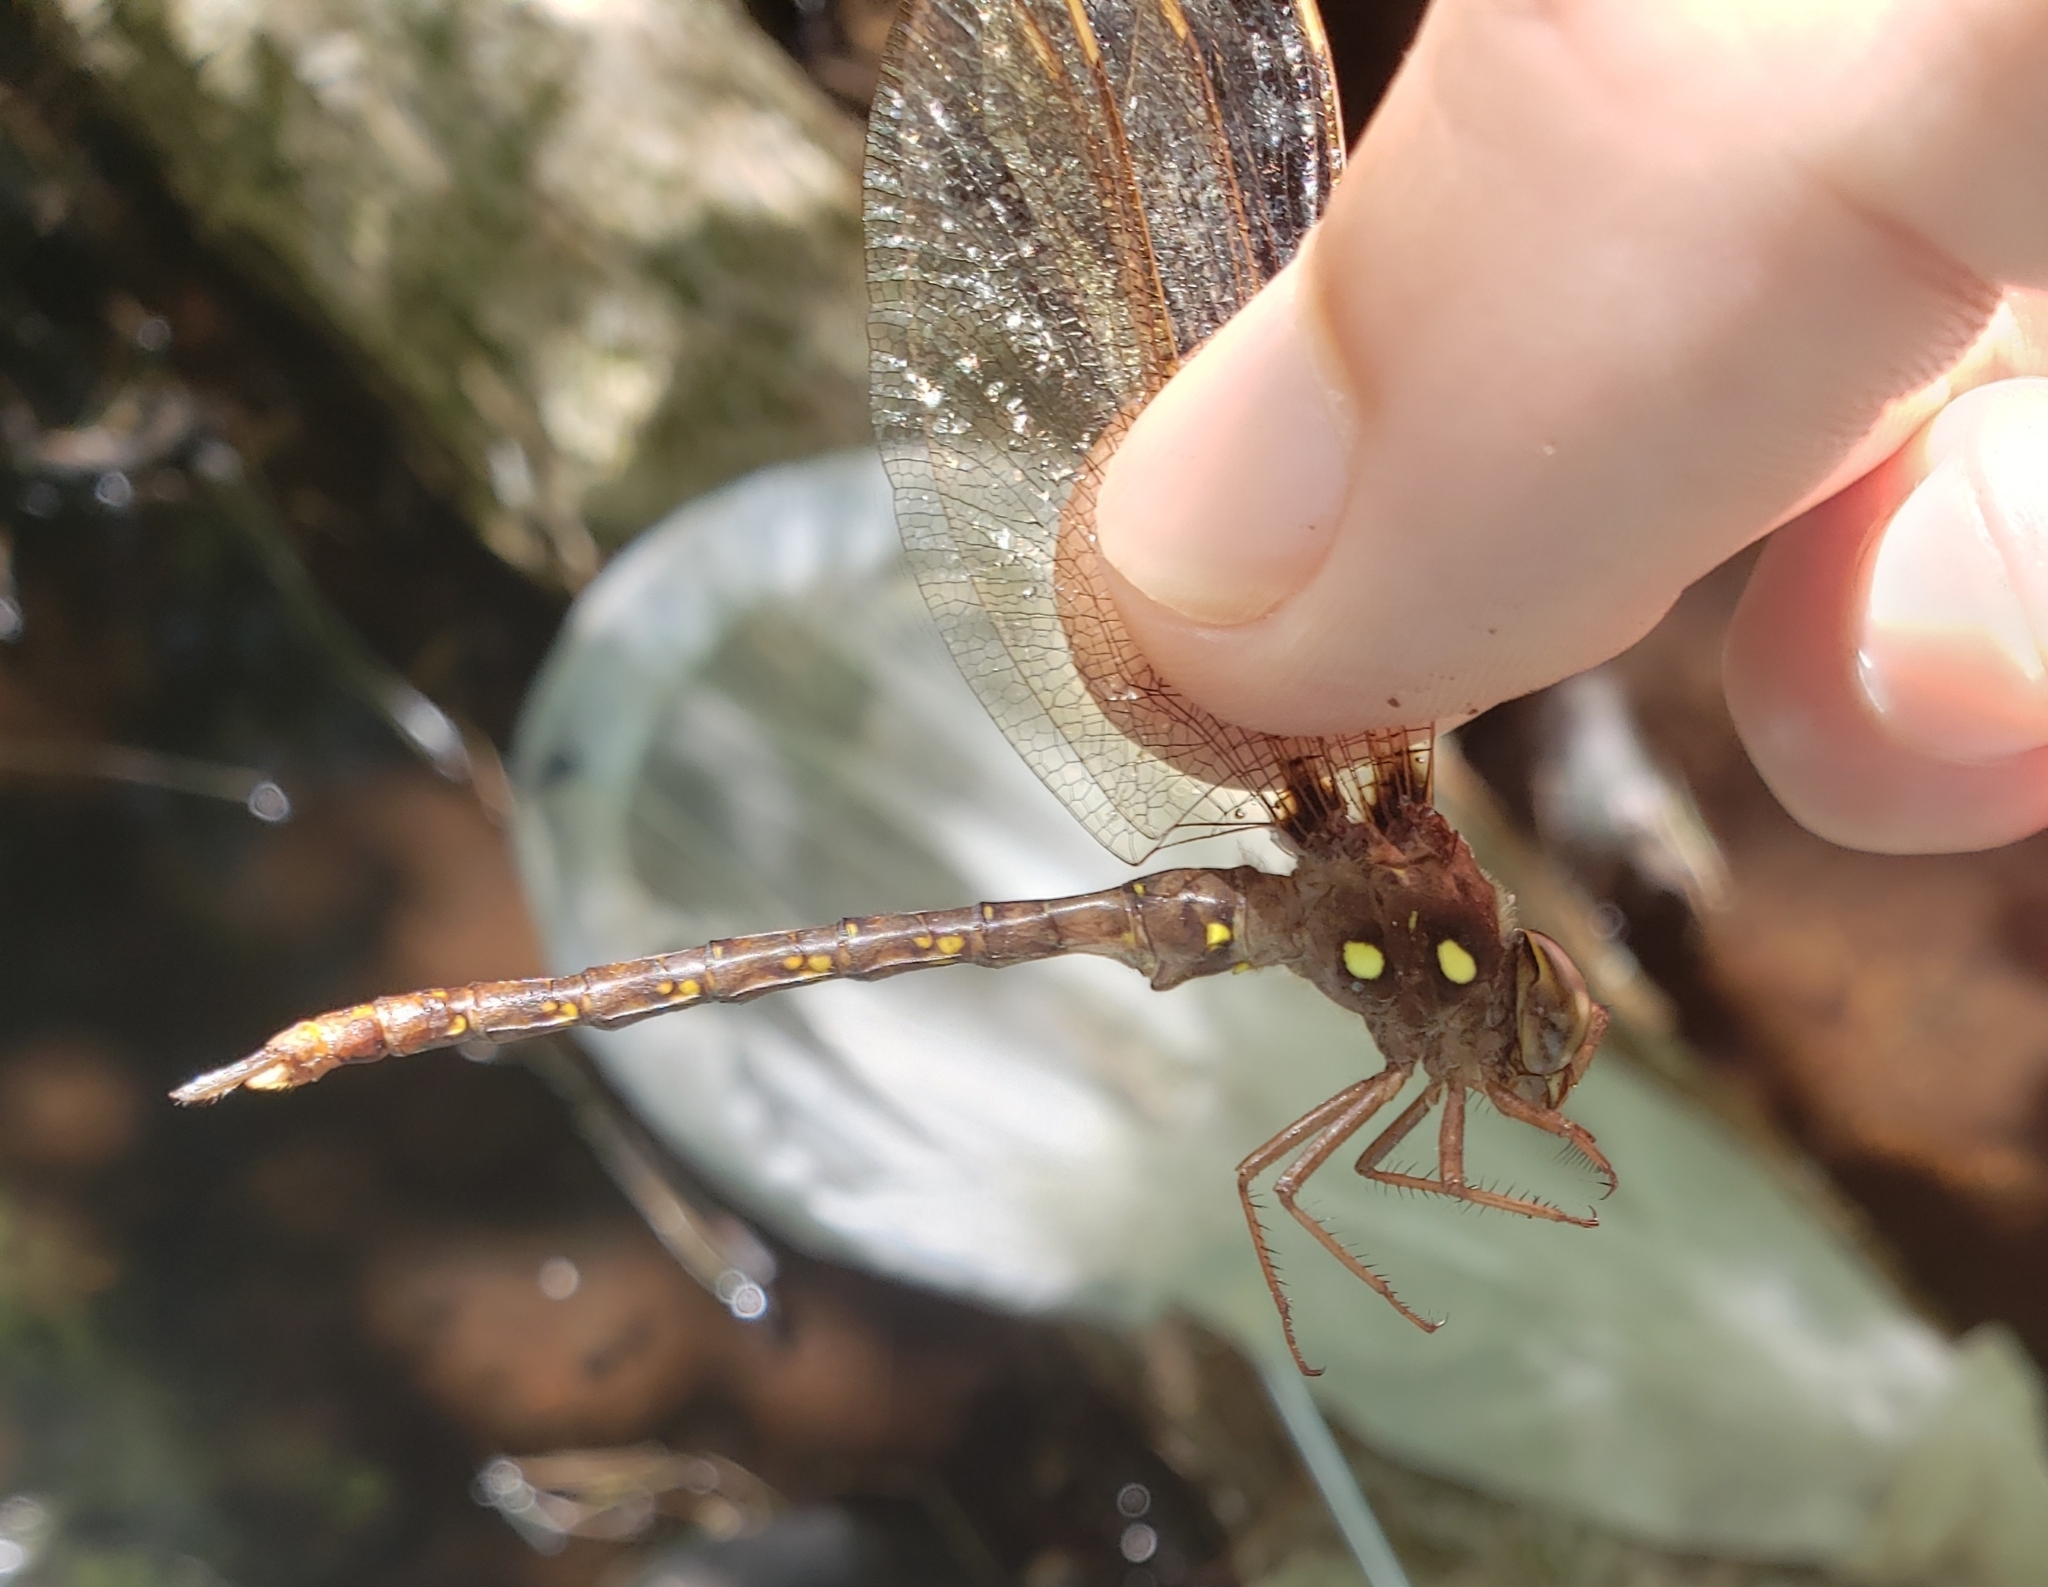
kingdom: Animalia
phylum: Arthropoda
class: Insecta
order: Odonata
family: Aeshnidae
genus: Boyeria
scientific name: Boyeria vinosa
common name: Fawn darner
